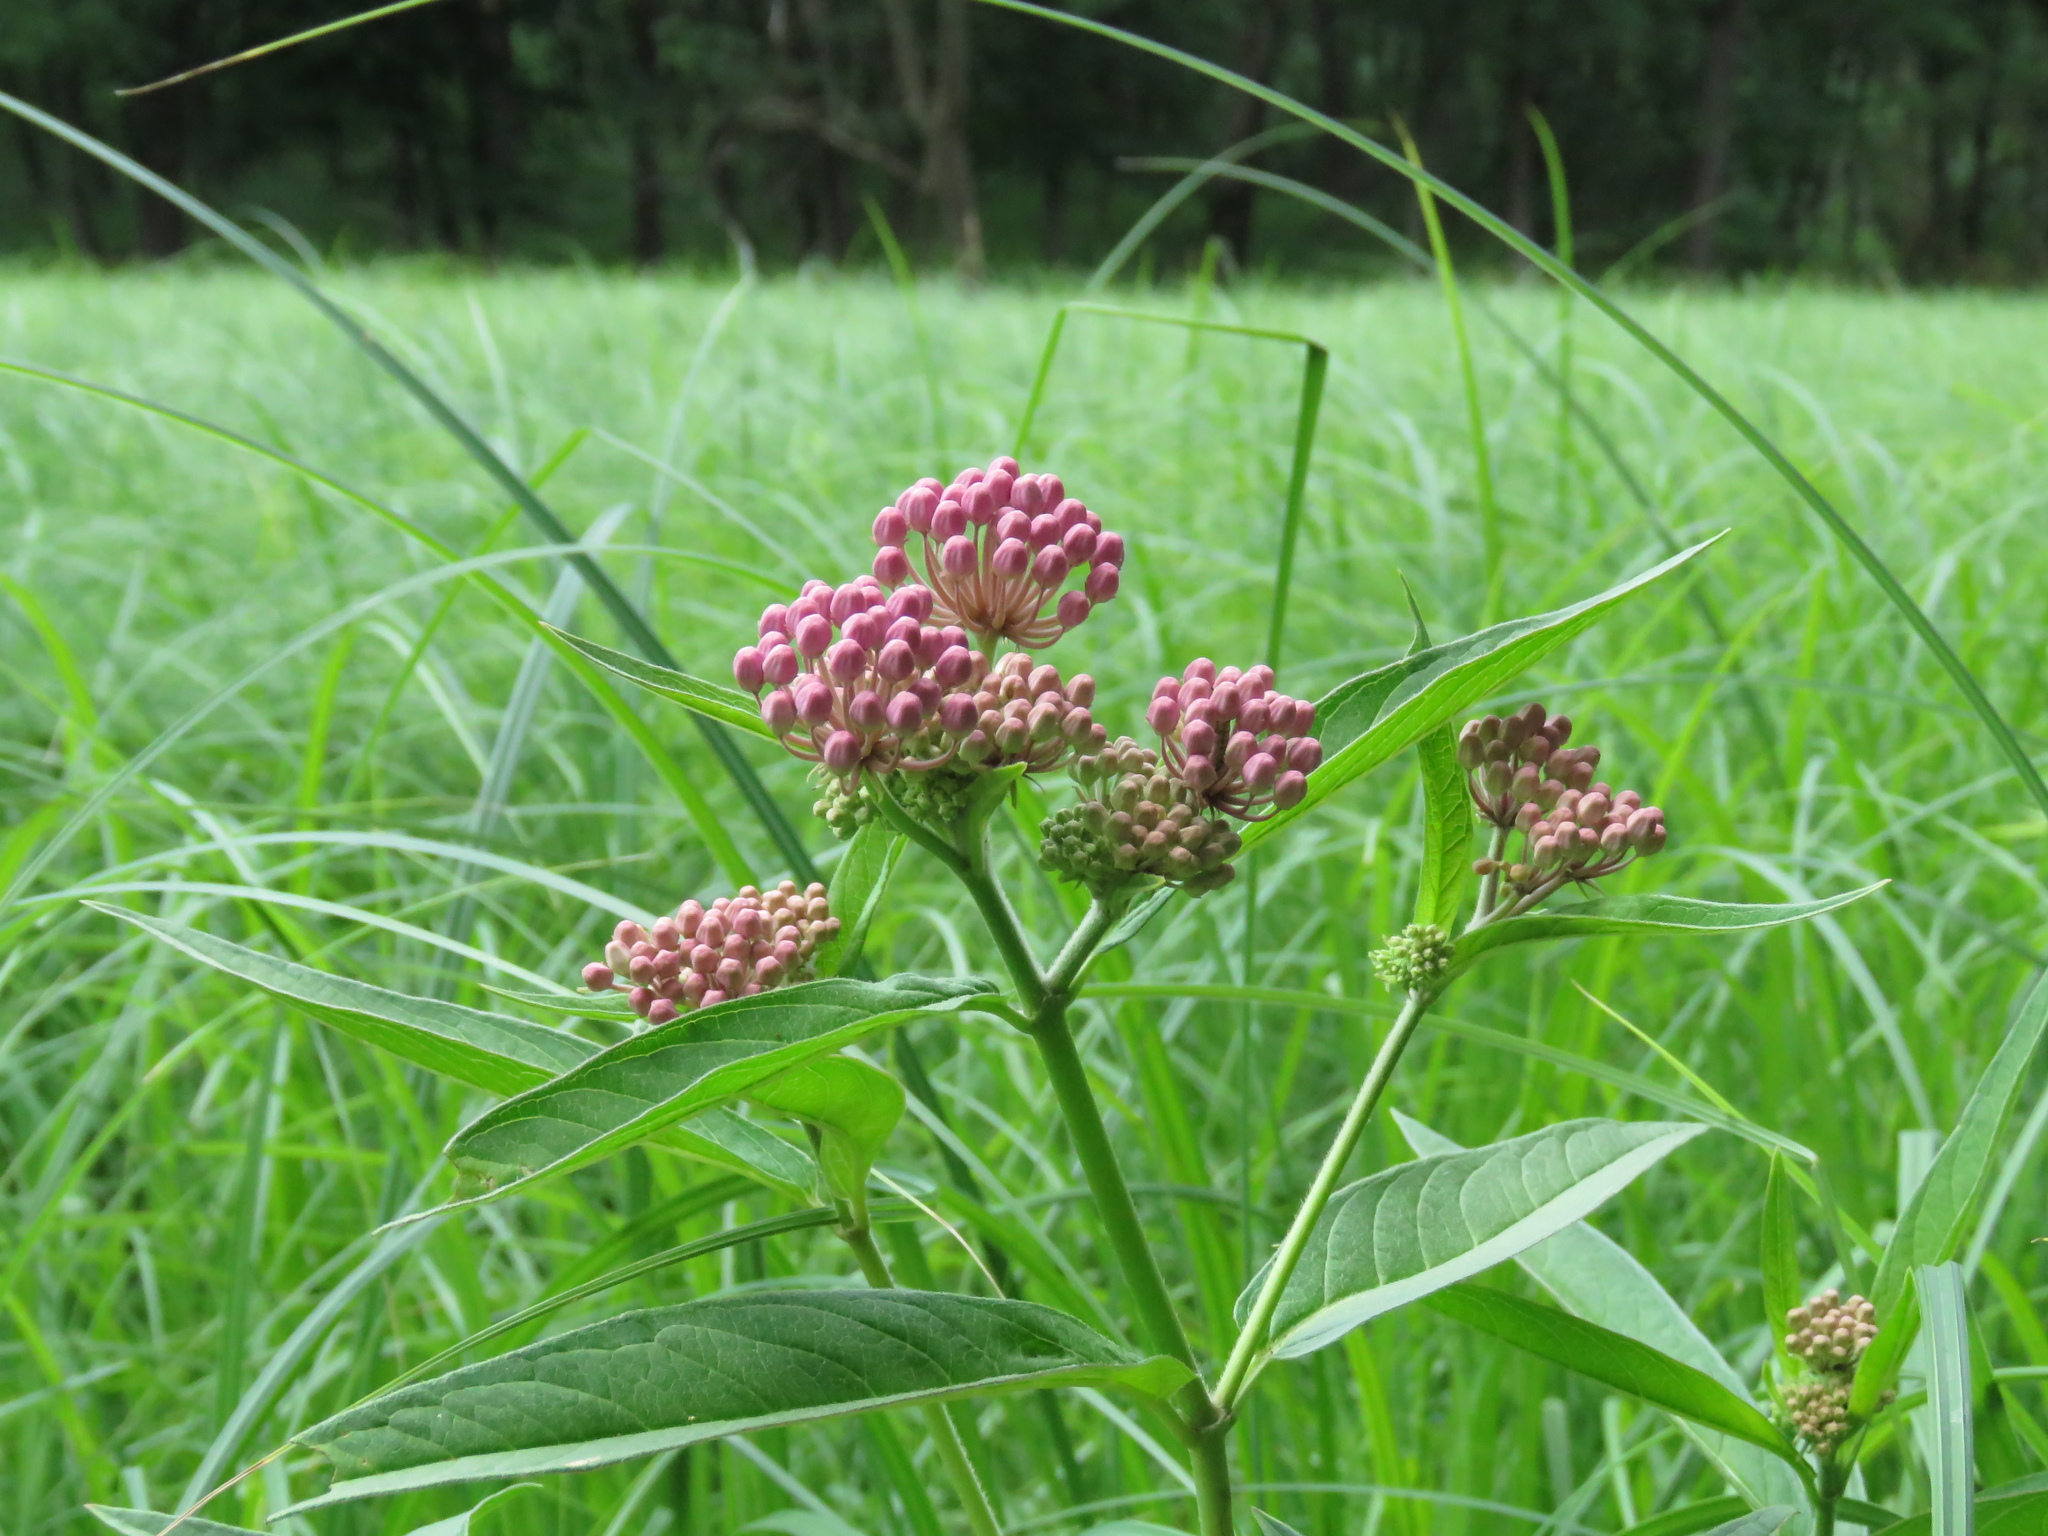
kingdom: Plantae
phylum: Tracheophyta
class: Magnoliopsida
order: Gentianales
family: Apocynaceae
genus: Asclepias
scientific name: Asclepias incarnata
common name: Swamp milkweed
